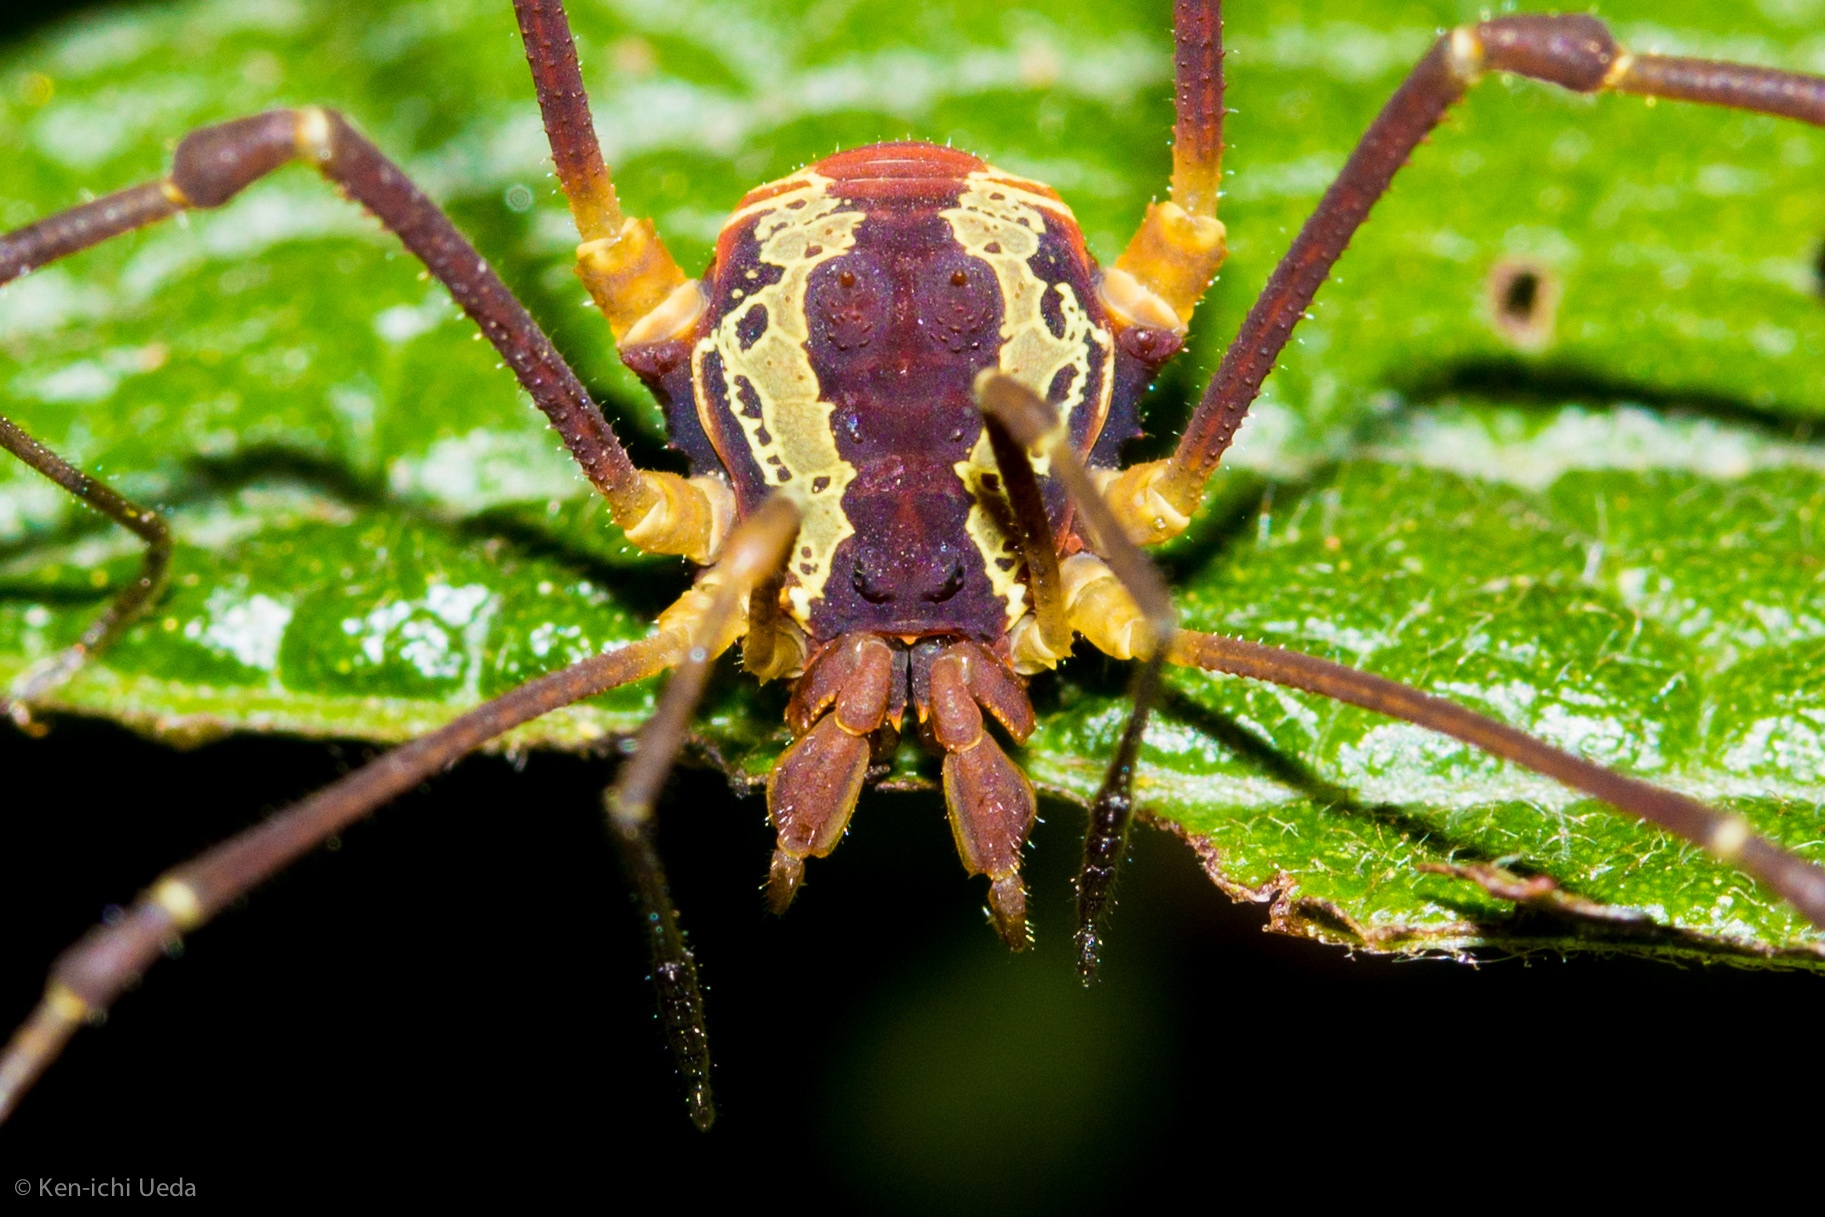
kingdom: Animalia
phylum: Arthropoda
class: Arachnida
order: Opiliones
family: Cosmetidae
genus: Meterginus
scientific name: Meterginus togatus
